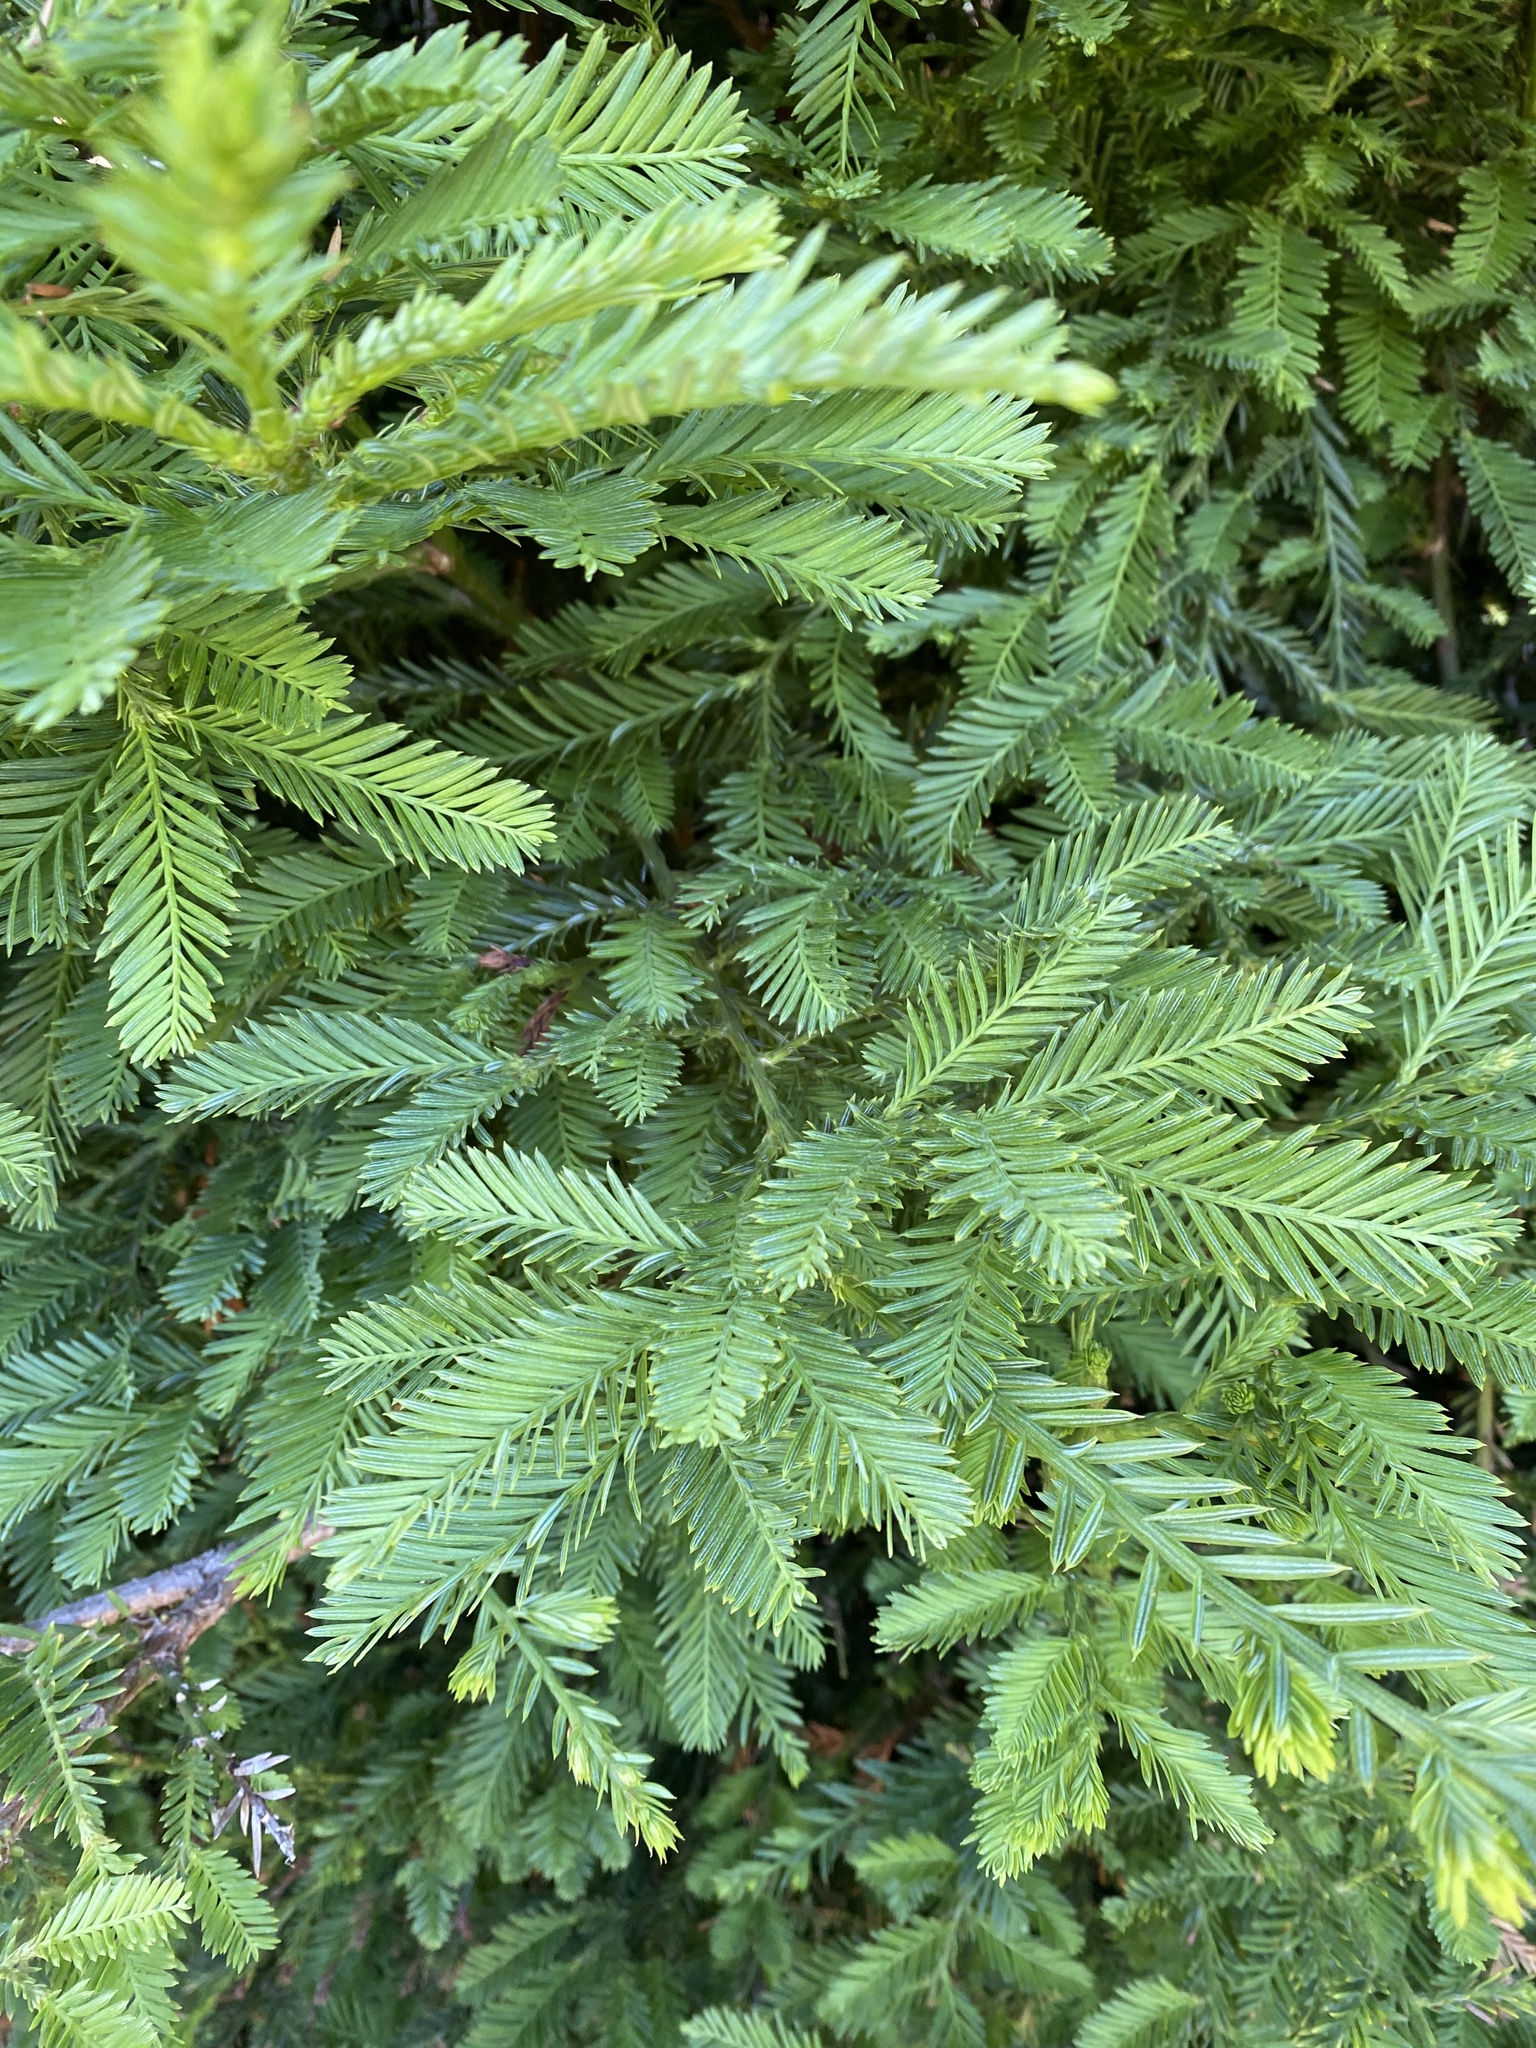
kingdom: Plantae
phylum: Tracheophyta
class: Pinopsida
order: Pinales
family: Cupressaceae
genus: Sequoia
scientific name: Sequoia sempervirens
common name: Coast redwood
